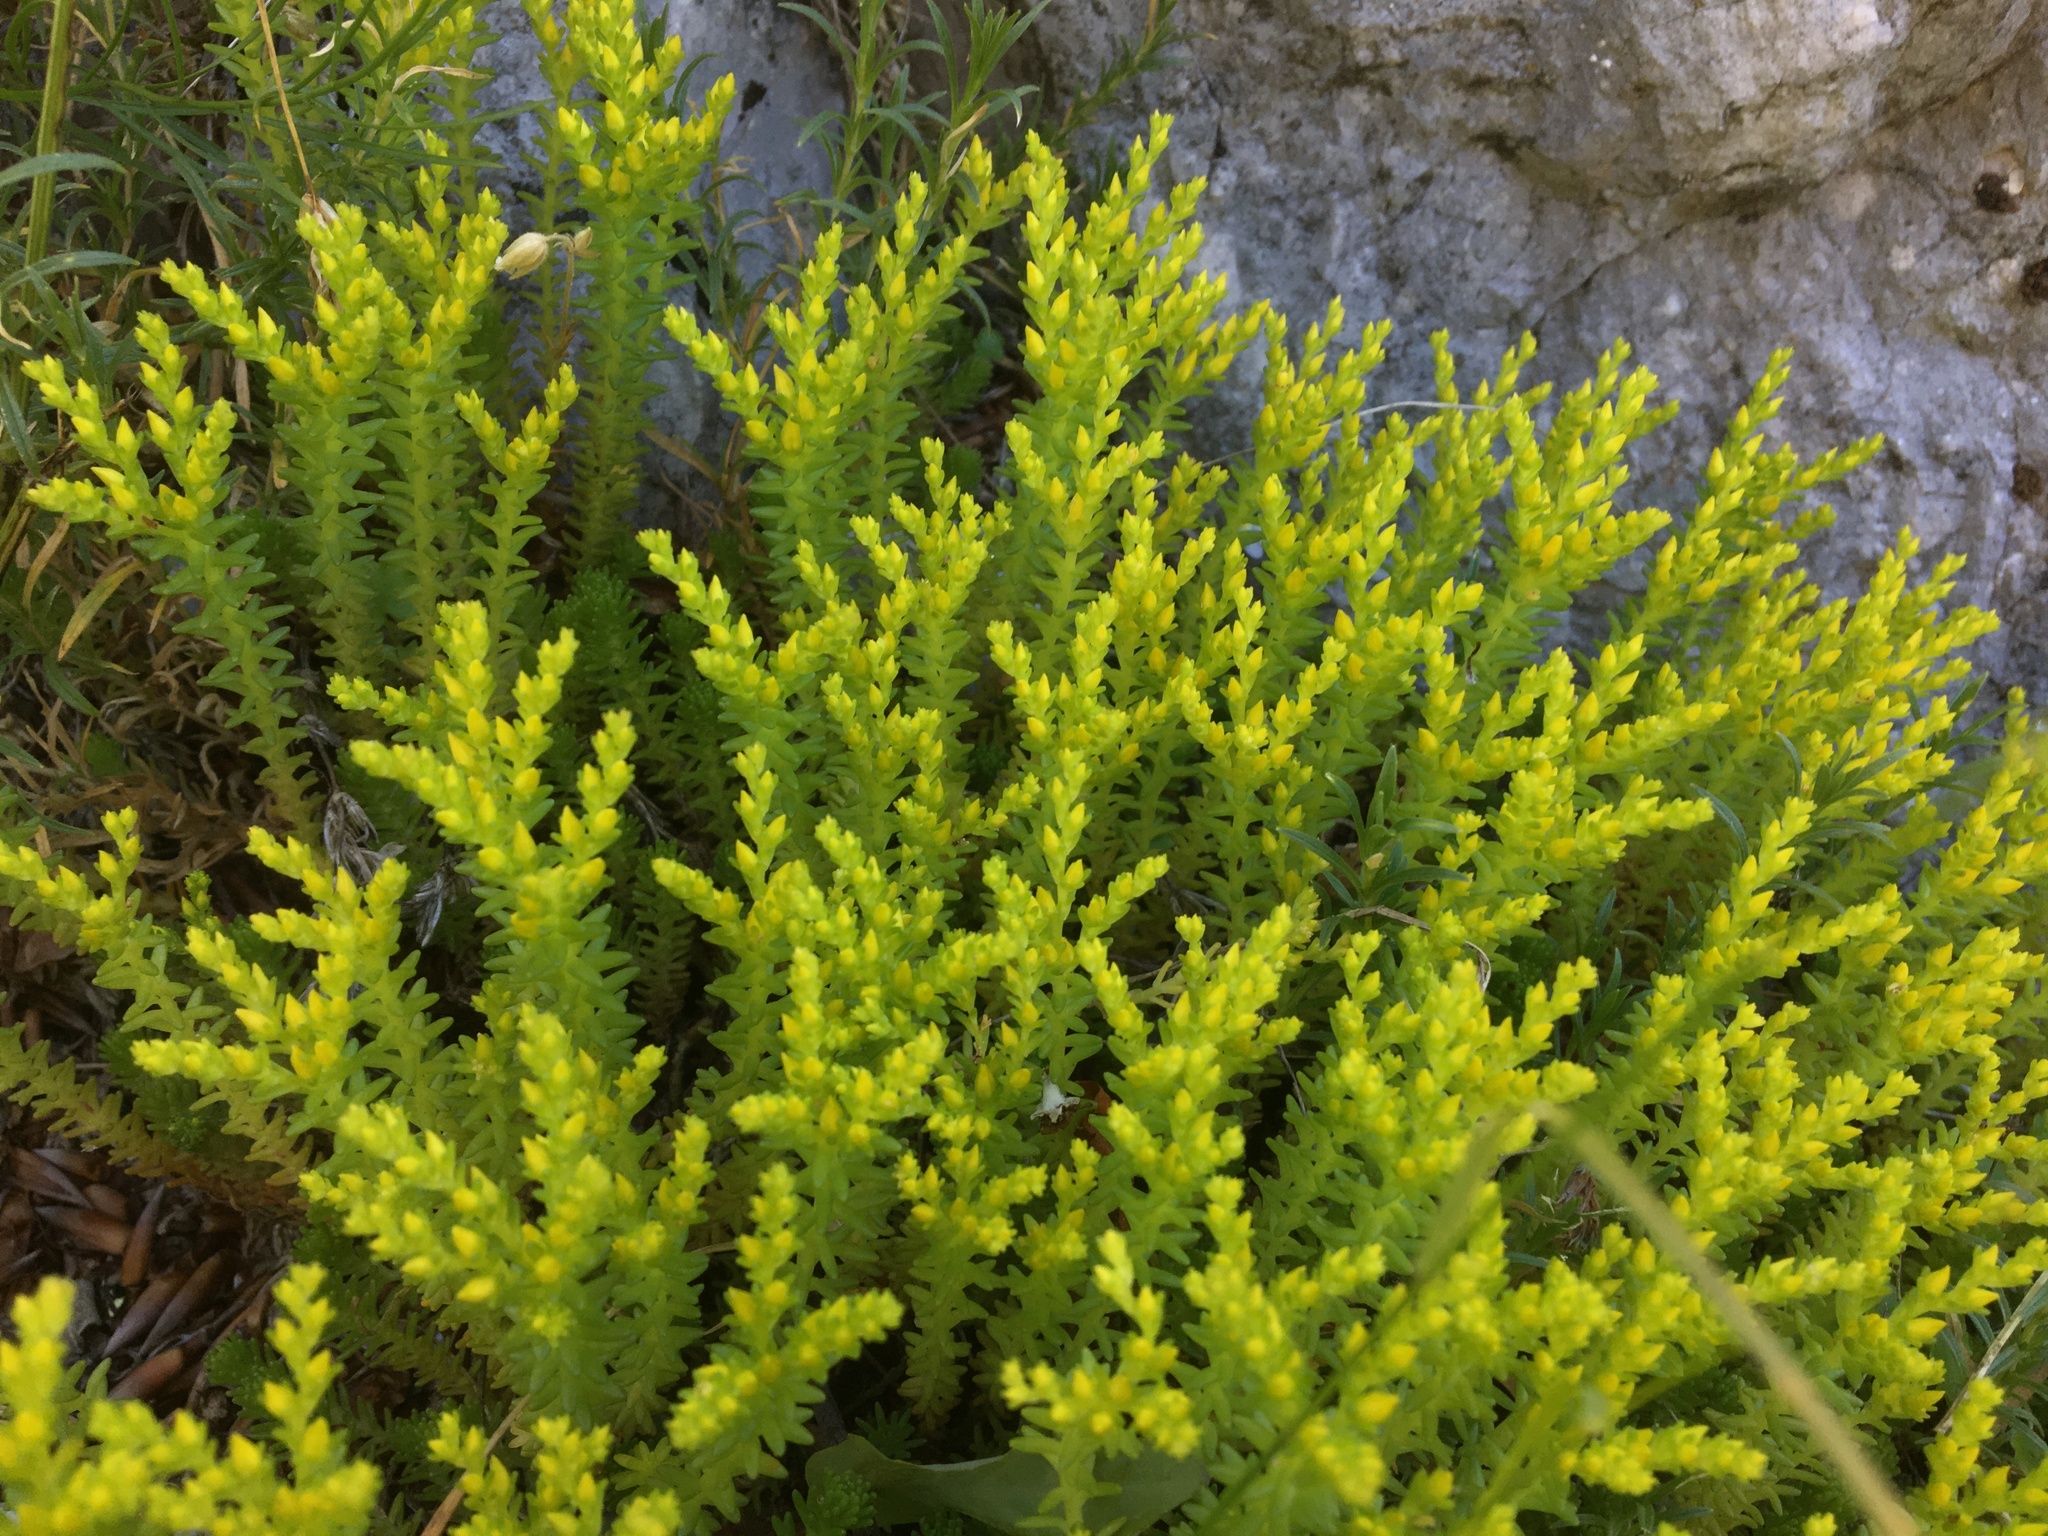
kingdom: Plantae
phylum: Tracheophyta
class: Magnoliopsida
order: Saxifragales
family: Crassulaceae
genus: Sedum
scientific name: Sedum sexangulare
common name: Tasteless stonecrop
